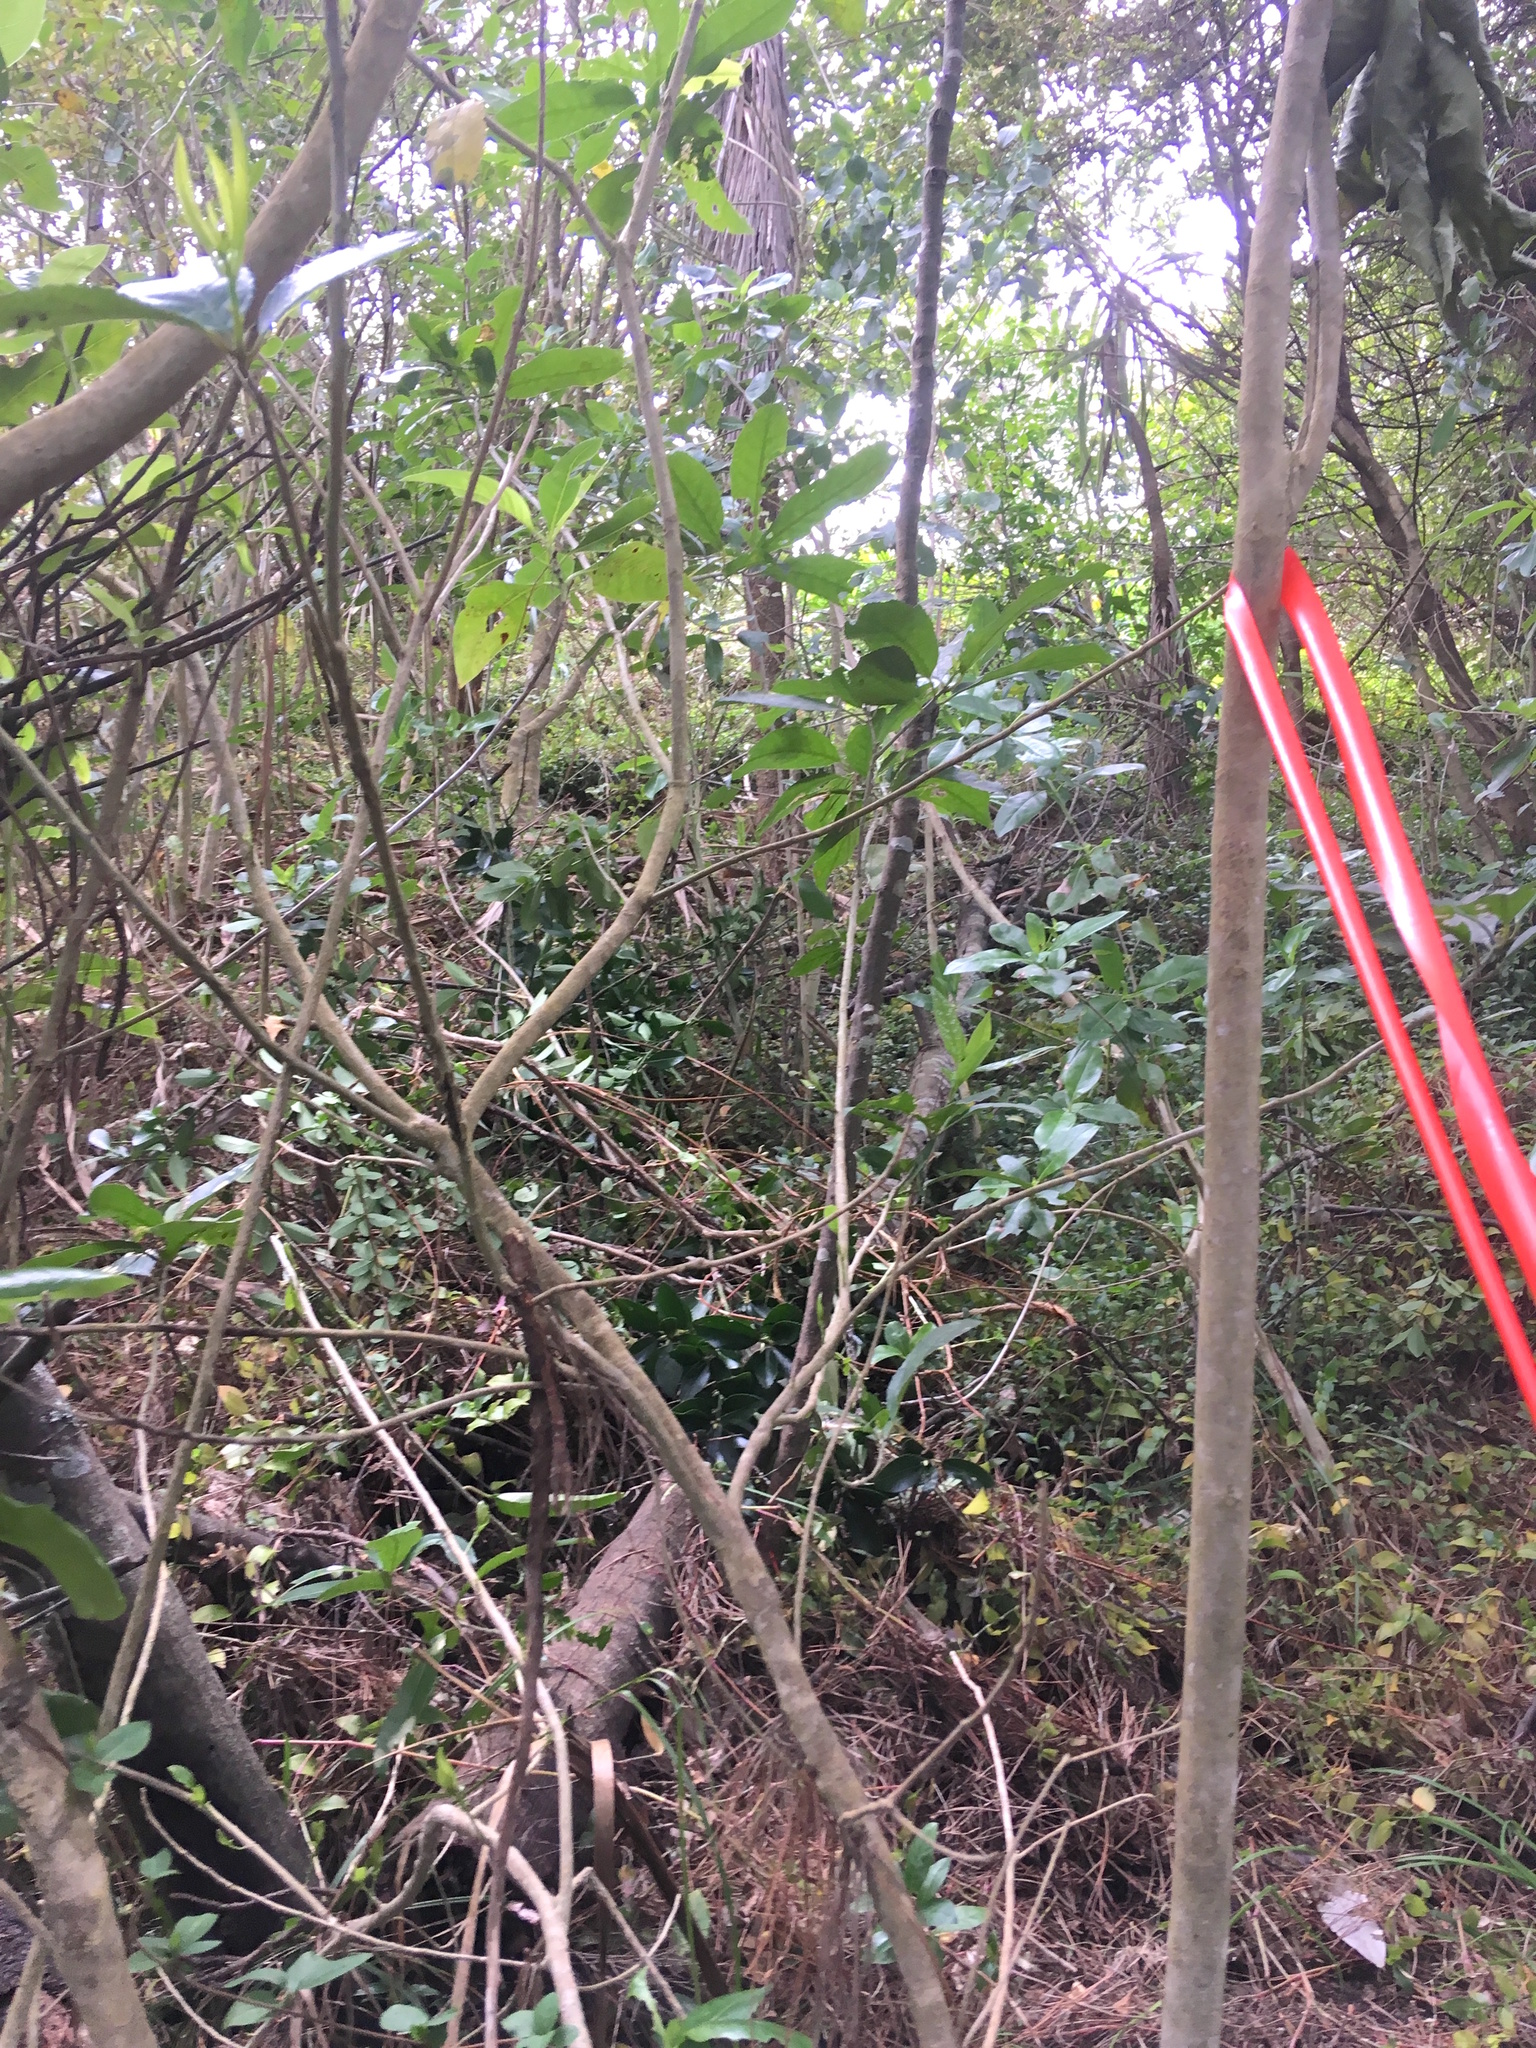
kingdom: Plantae
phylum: Tracheophyta
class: Magnoliopsida
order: Malpighiales
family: Violaceae
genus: Melicytus
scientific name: Melicytus ramiflorus
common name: Mahoe
